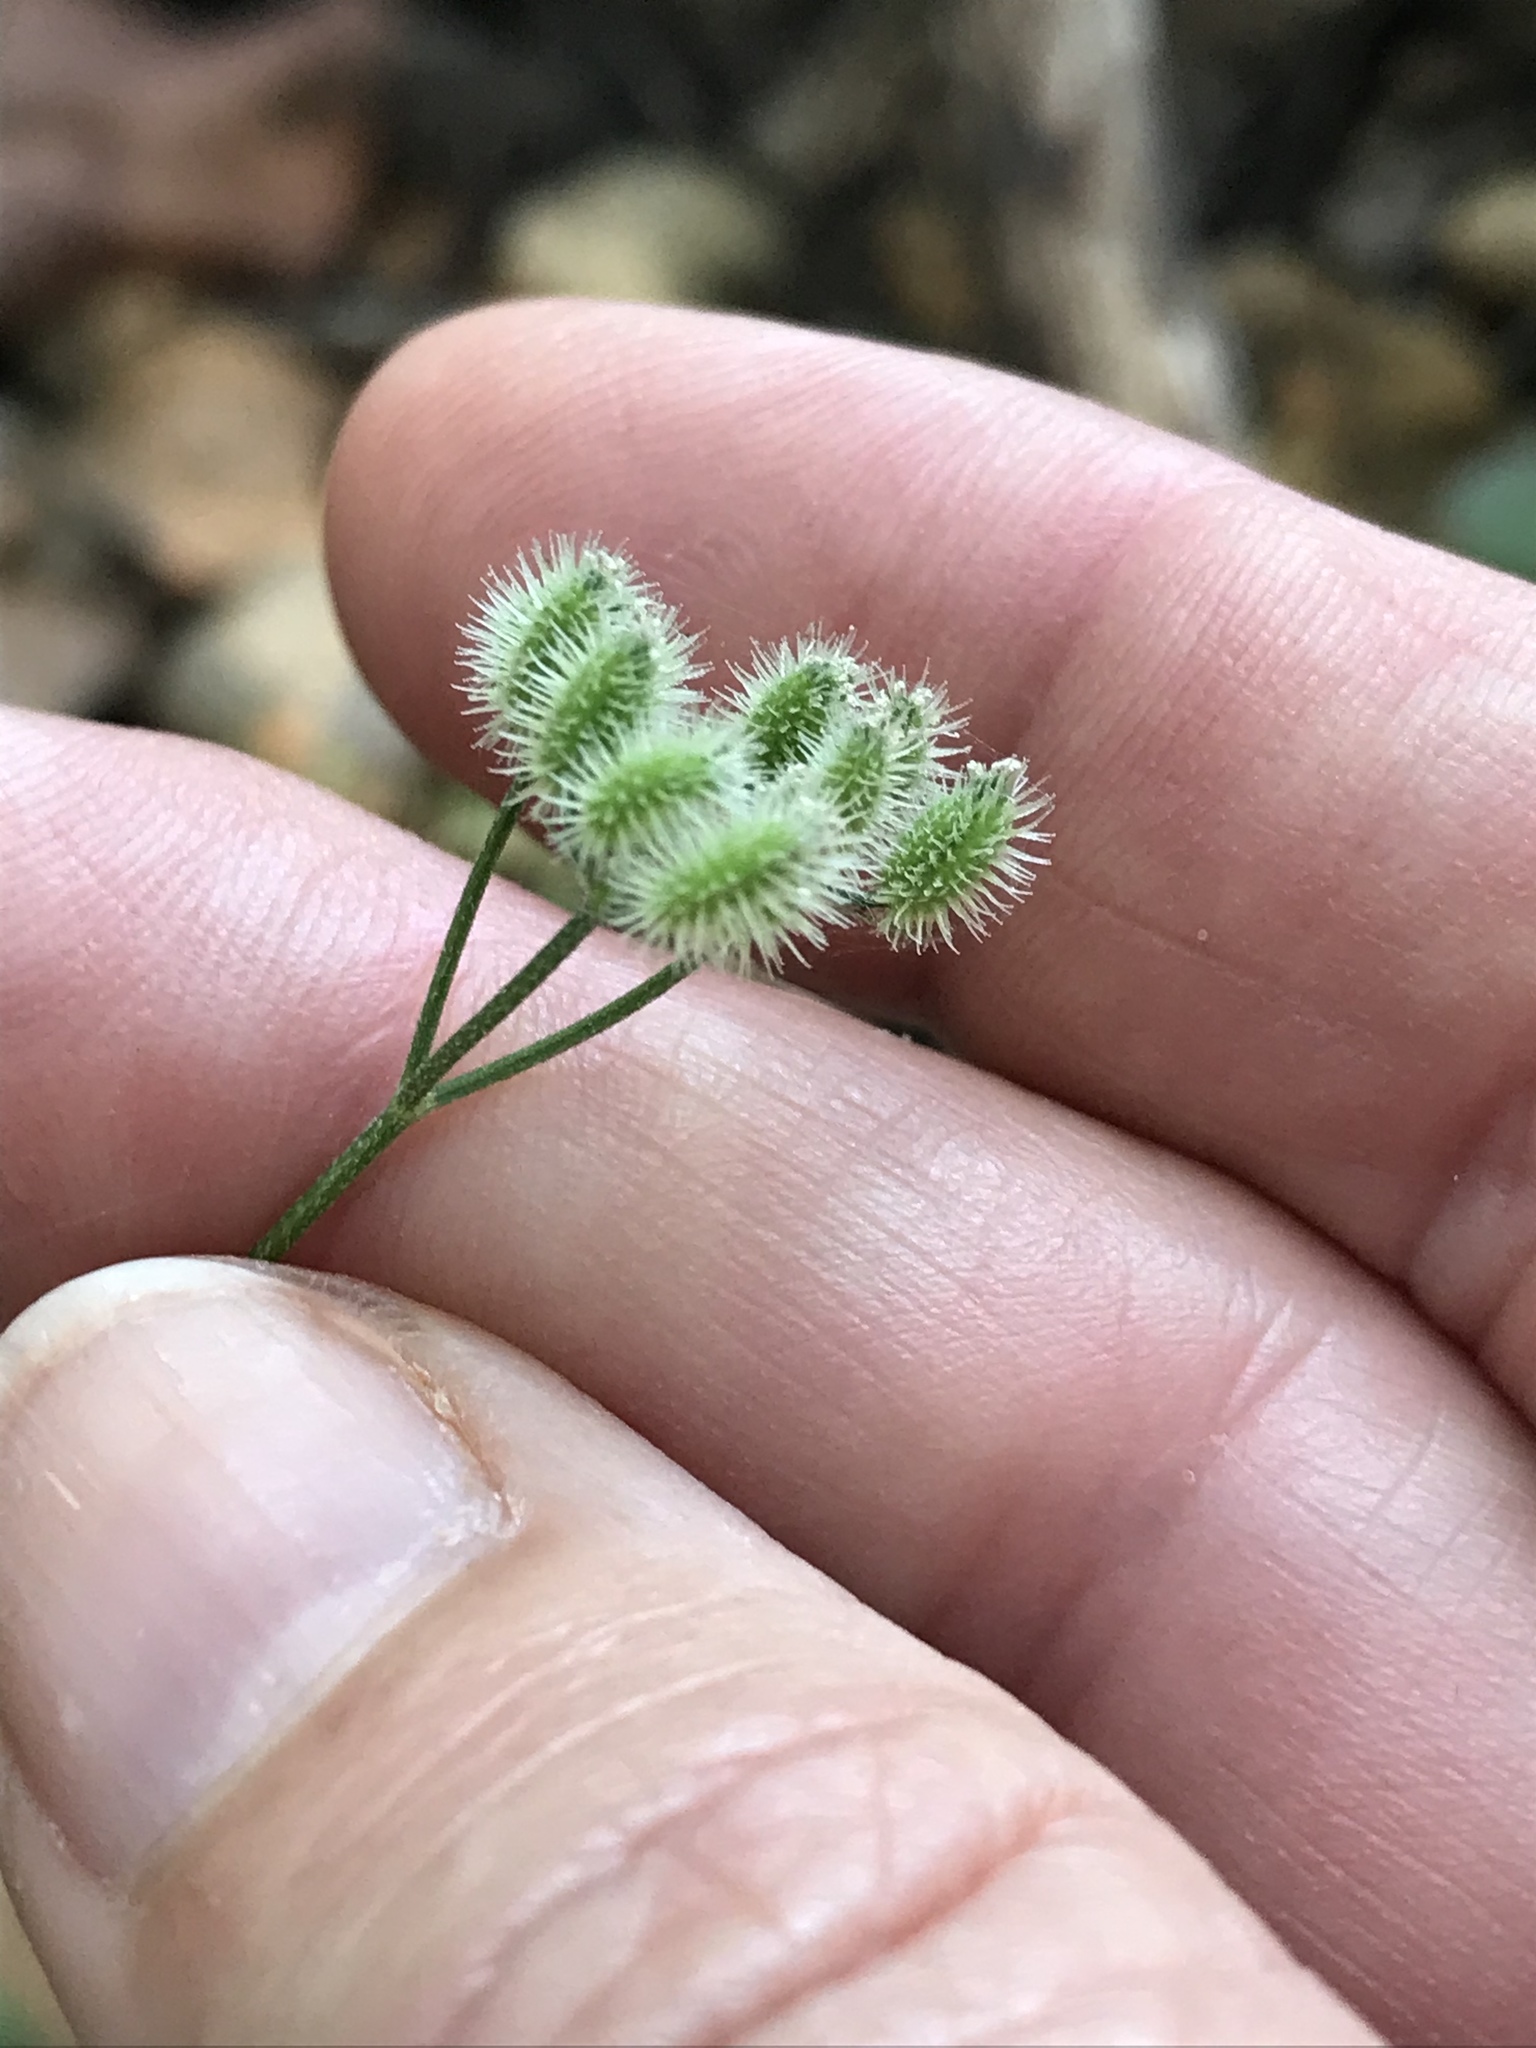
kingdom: Plantae
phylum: Tracheophyta
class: Magnoliopsida
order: Apiales
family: Apiaceae
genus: Anthriscus
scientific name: Anthriscus caucalis
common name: Bur chervil
